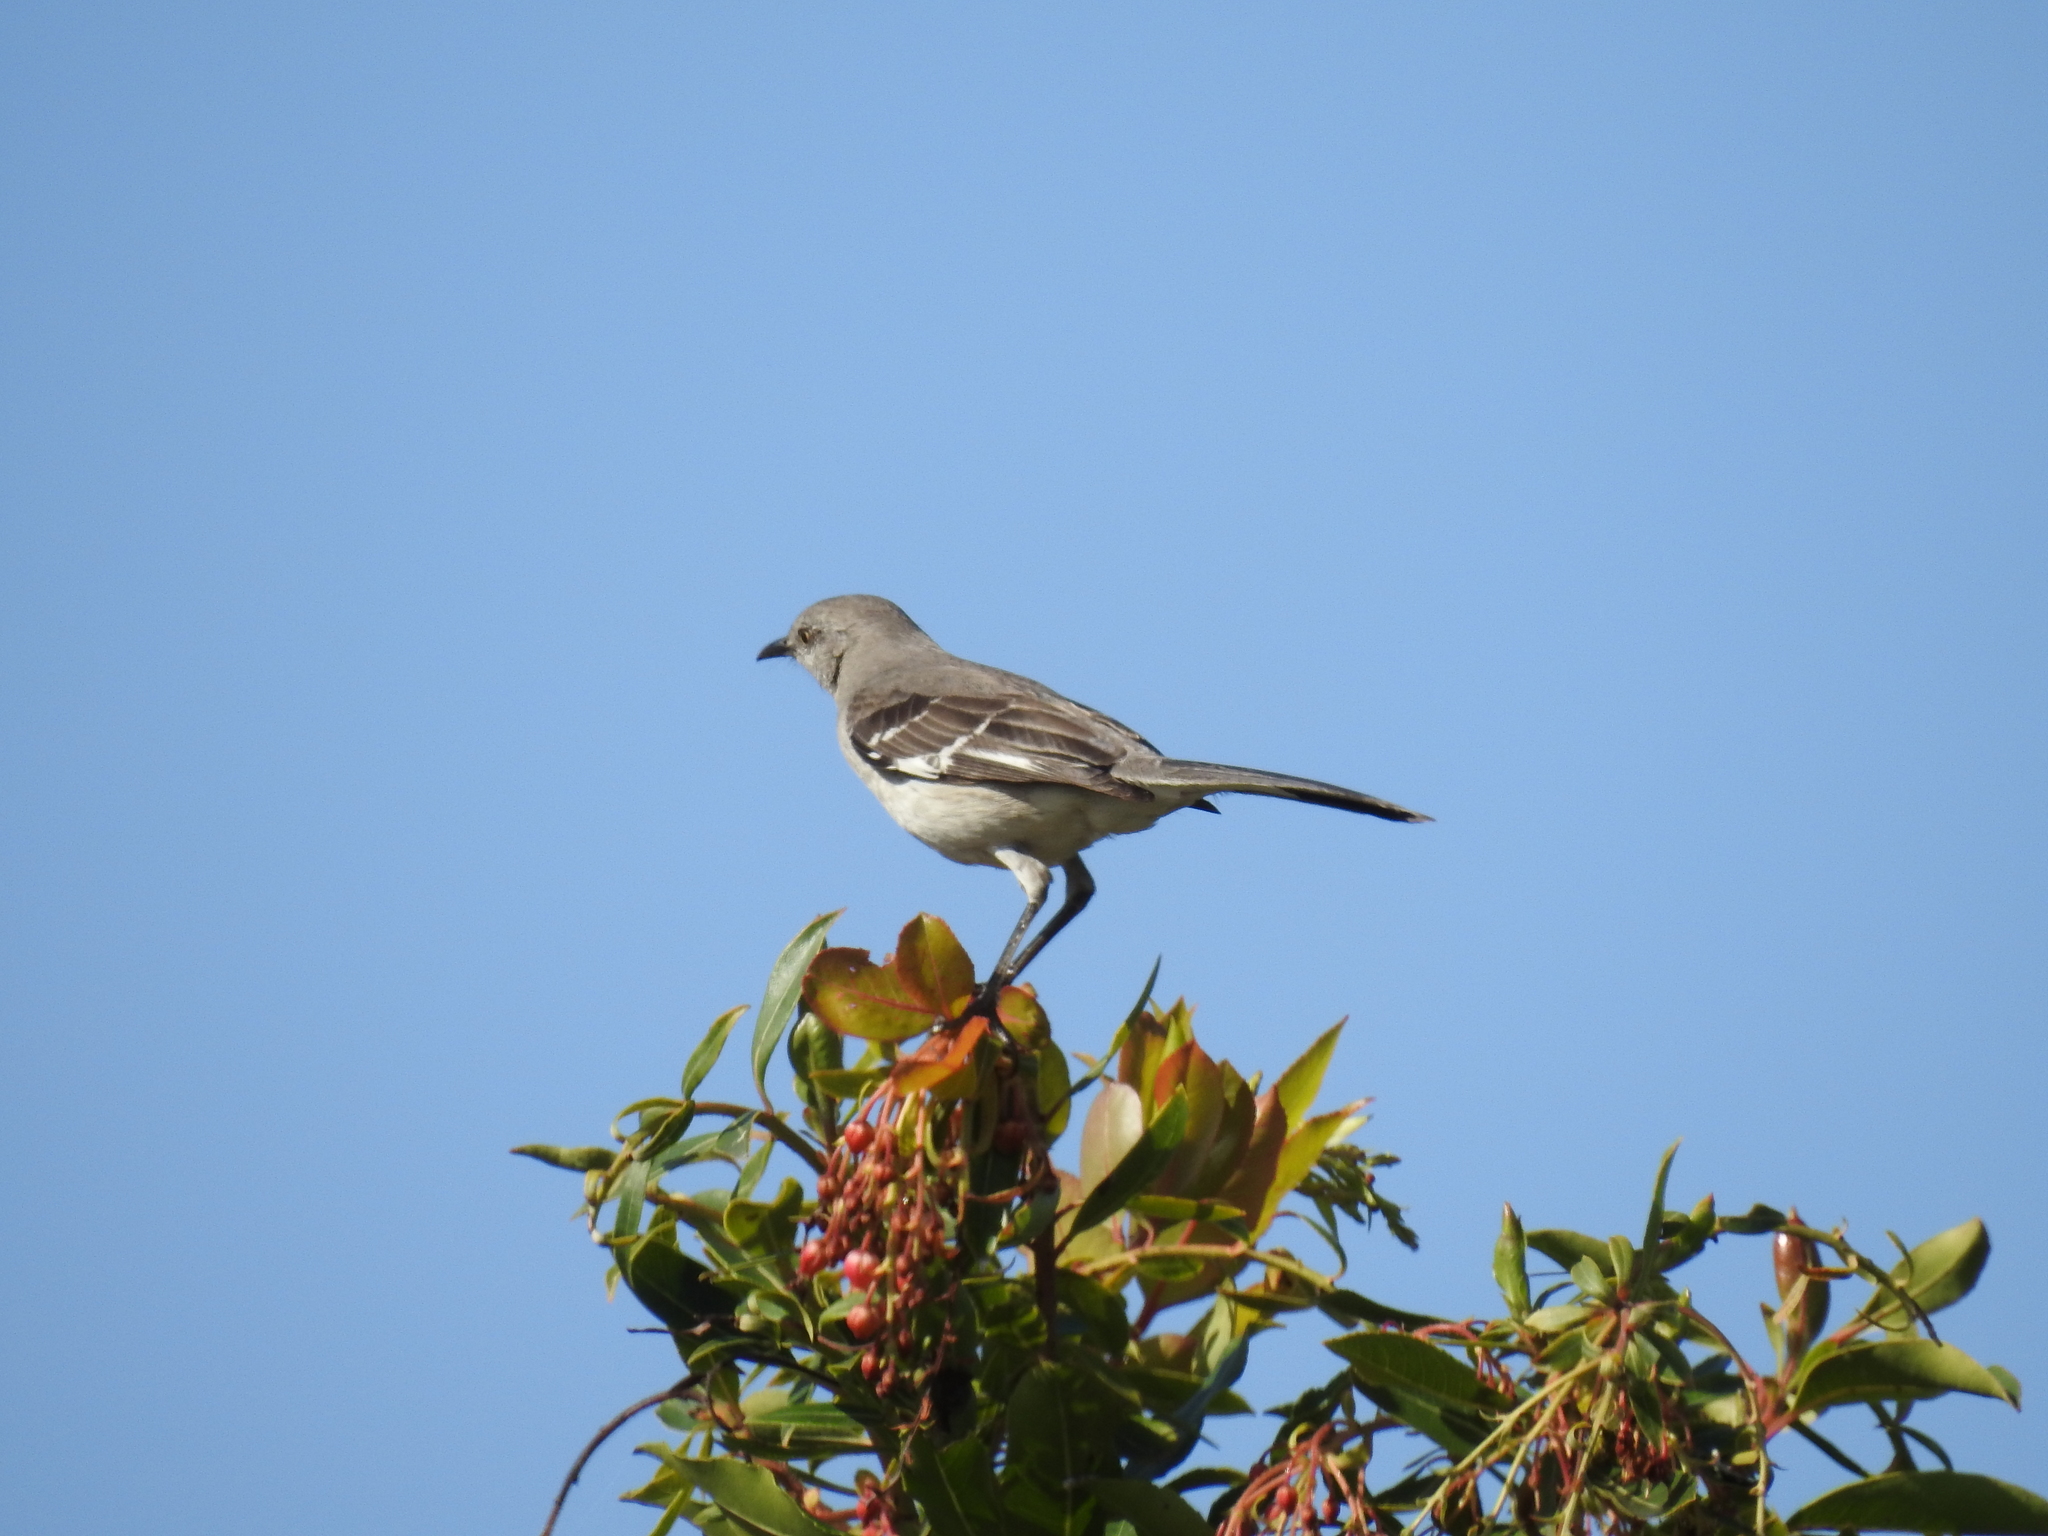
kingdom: Animalia
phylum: Chordata
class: Aves
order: Passeriformes
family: Mimidae
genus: Mimus
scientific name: Mimus polyglottos
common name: Northern mockingbird
